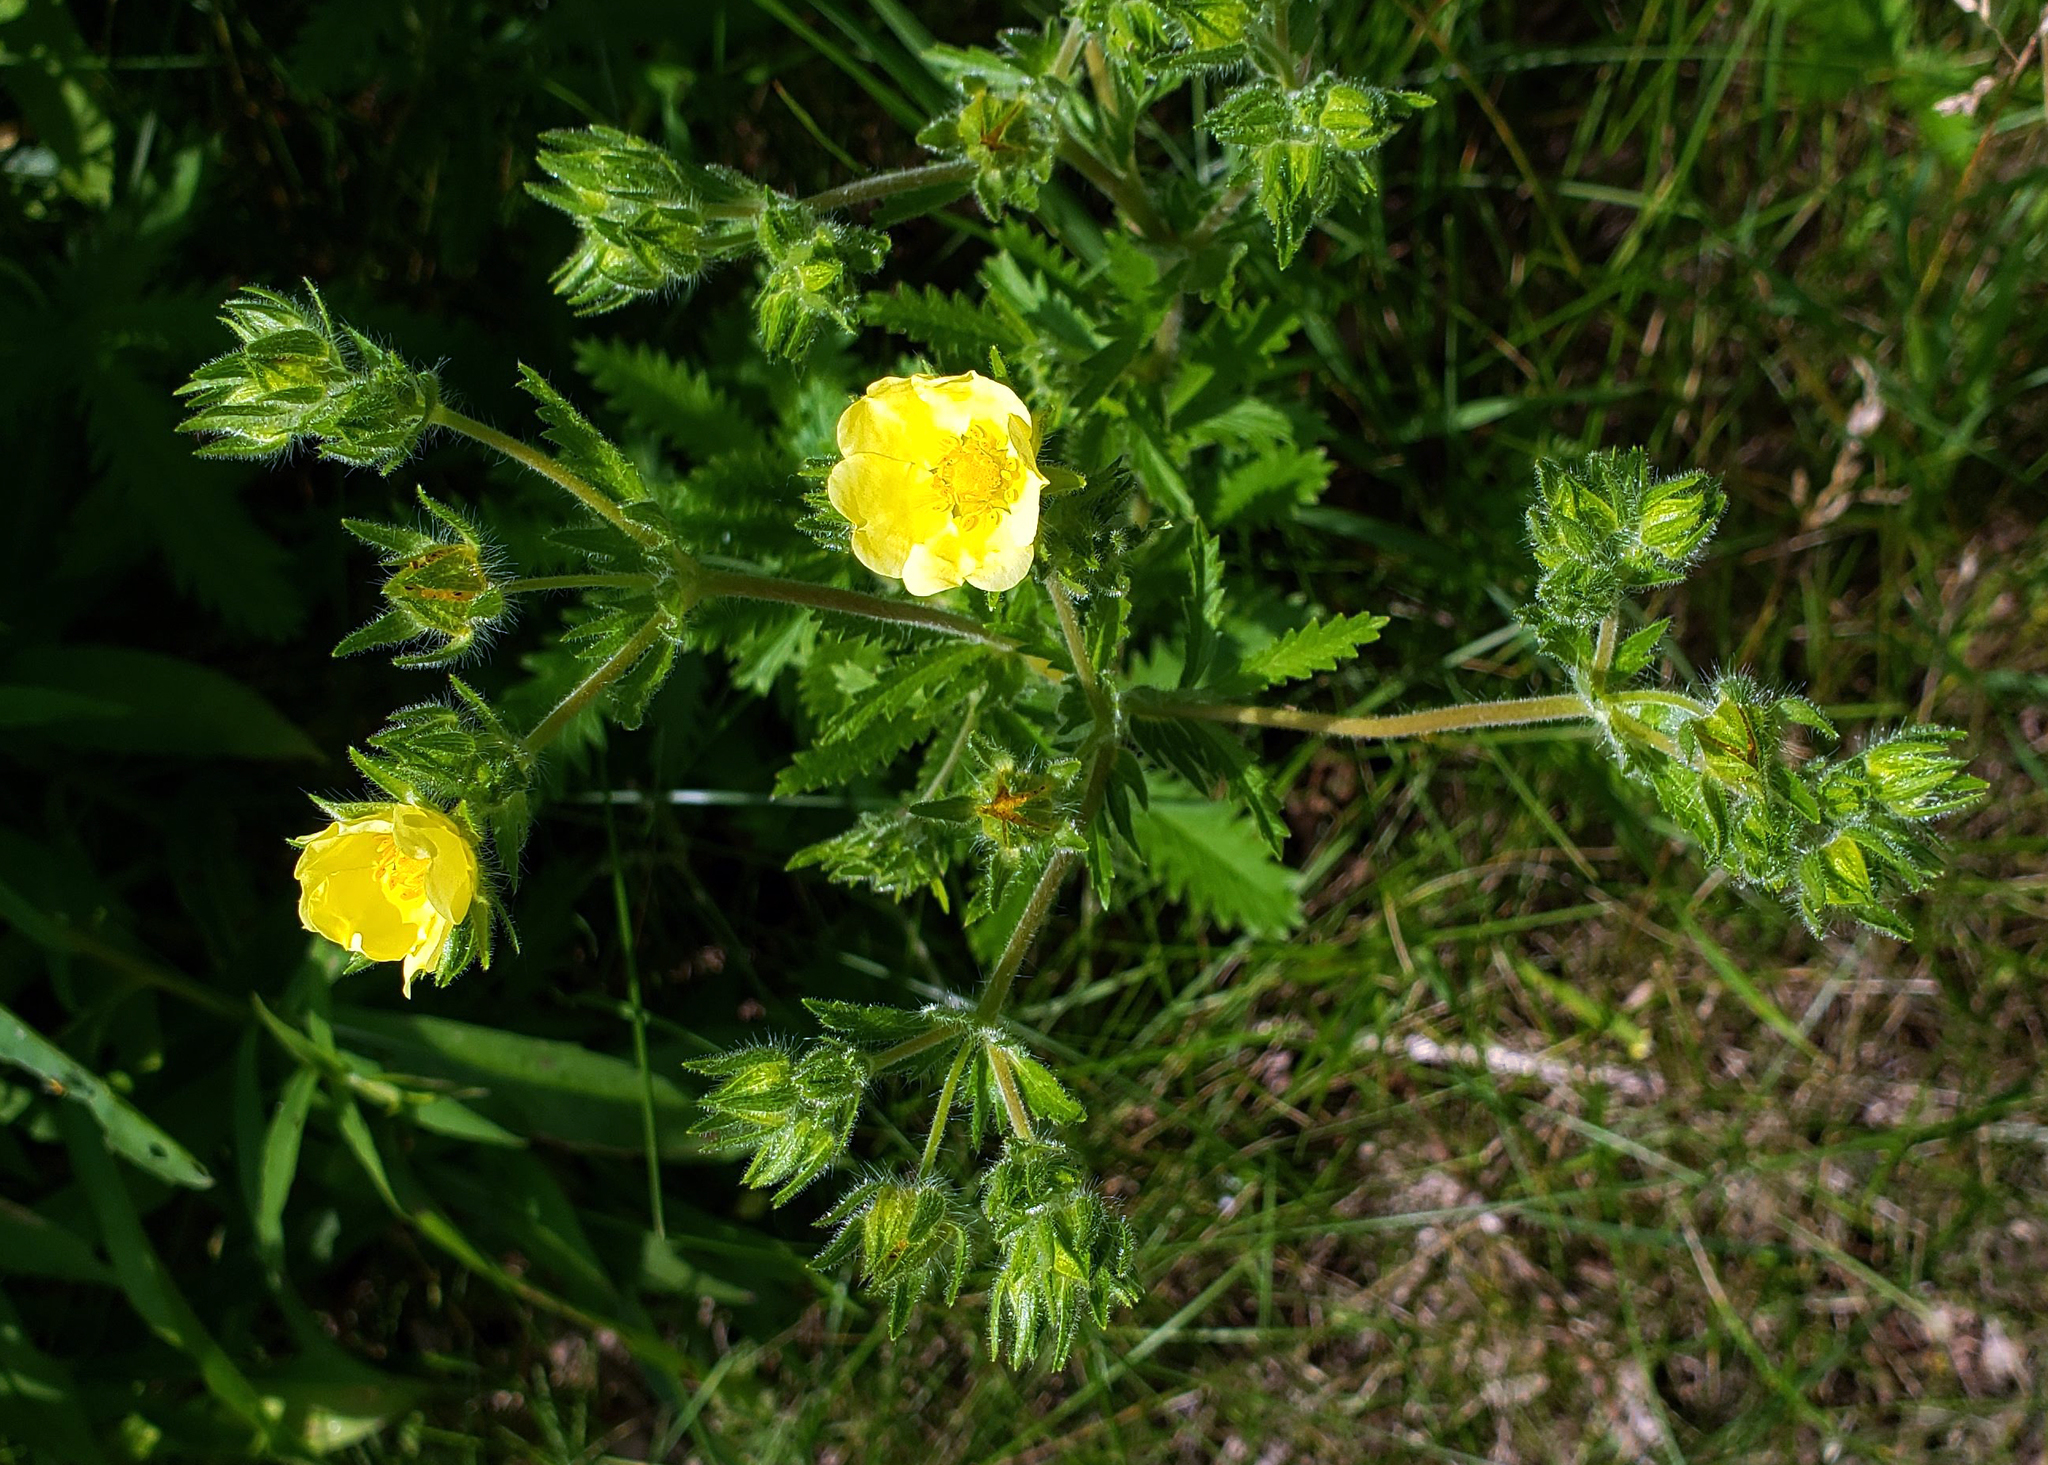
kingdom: Plantae
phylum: Tracheophyta
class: Magnoliopsida
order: Rosales
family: Rosaceae
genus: Potentilla
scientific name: Potentilla recta
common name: Sulphur cinquefoil
